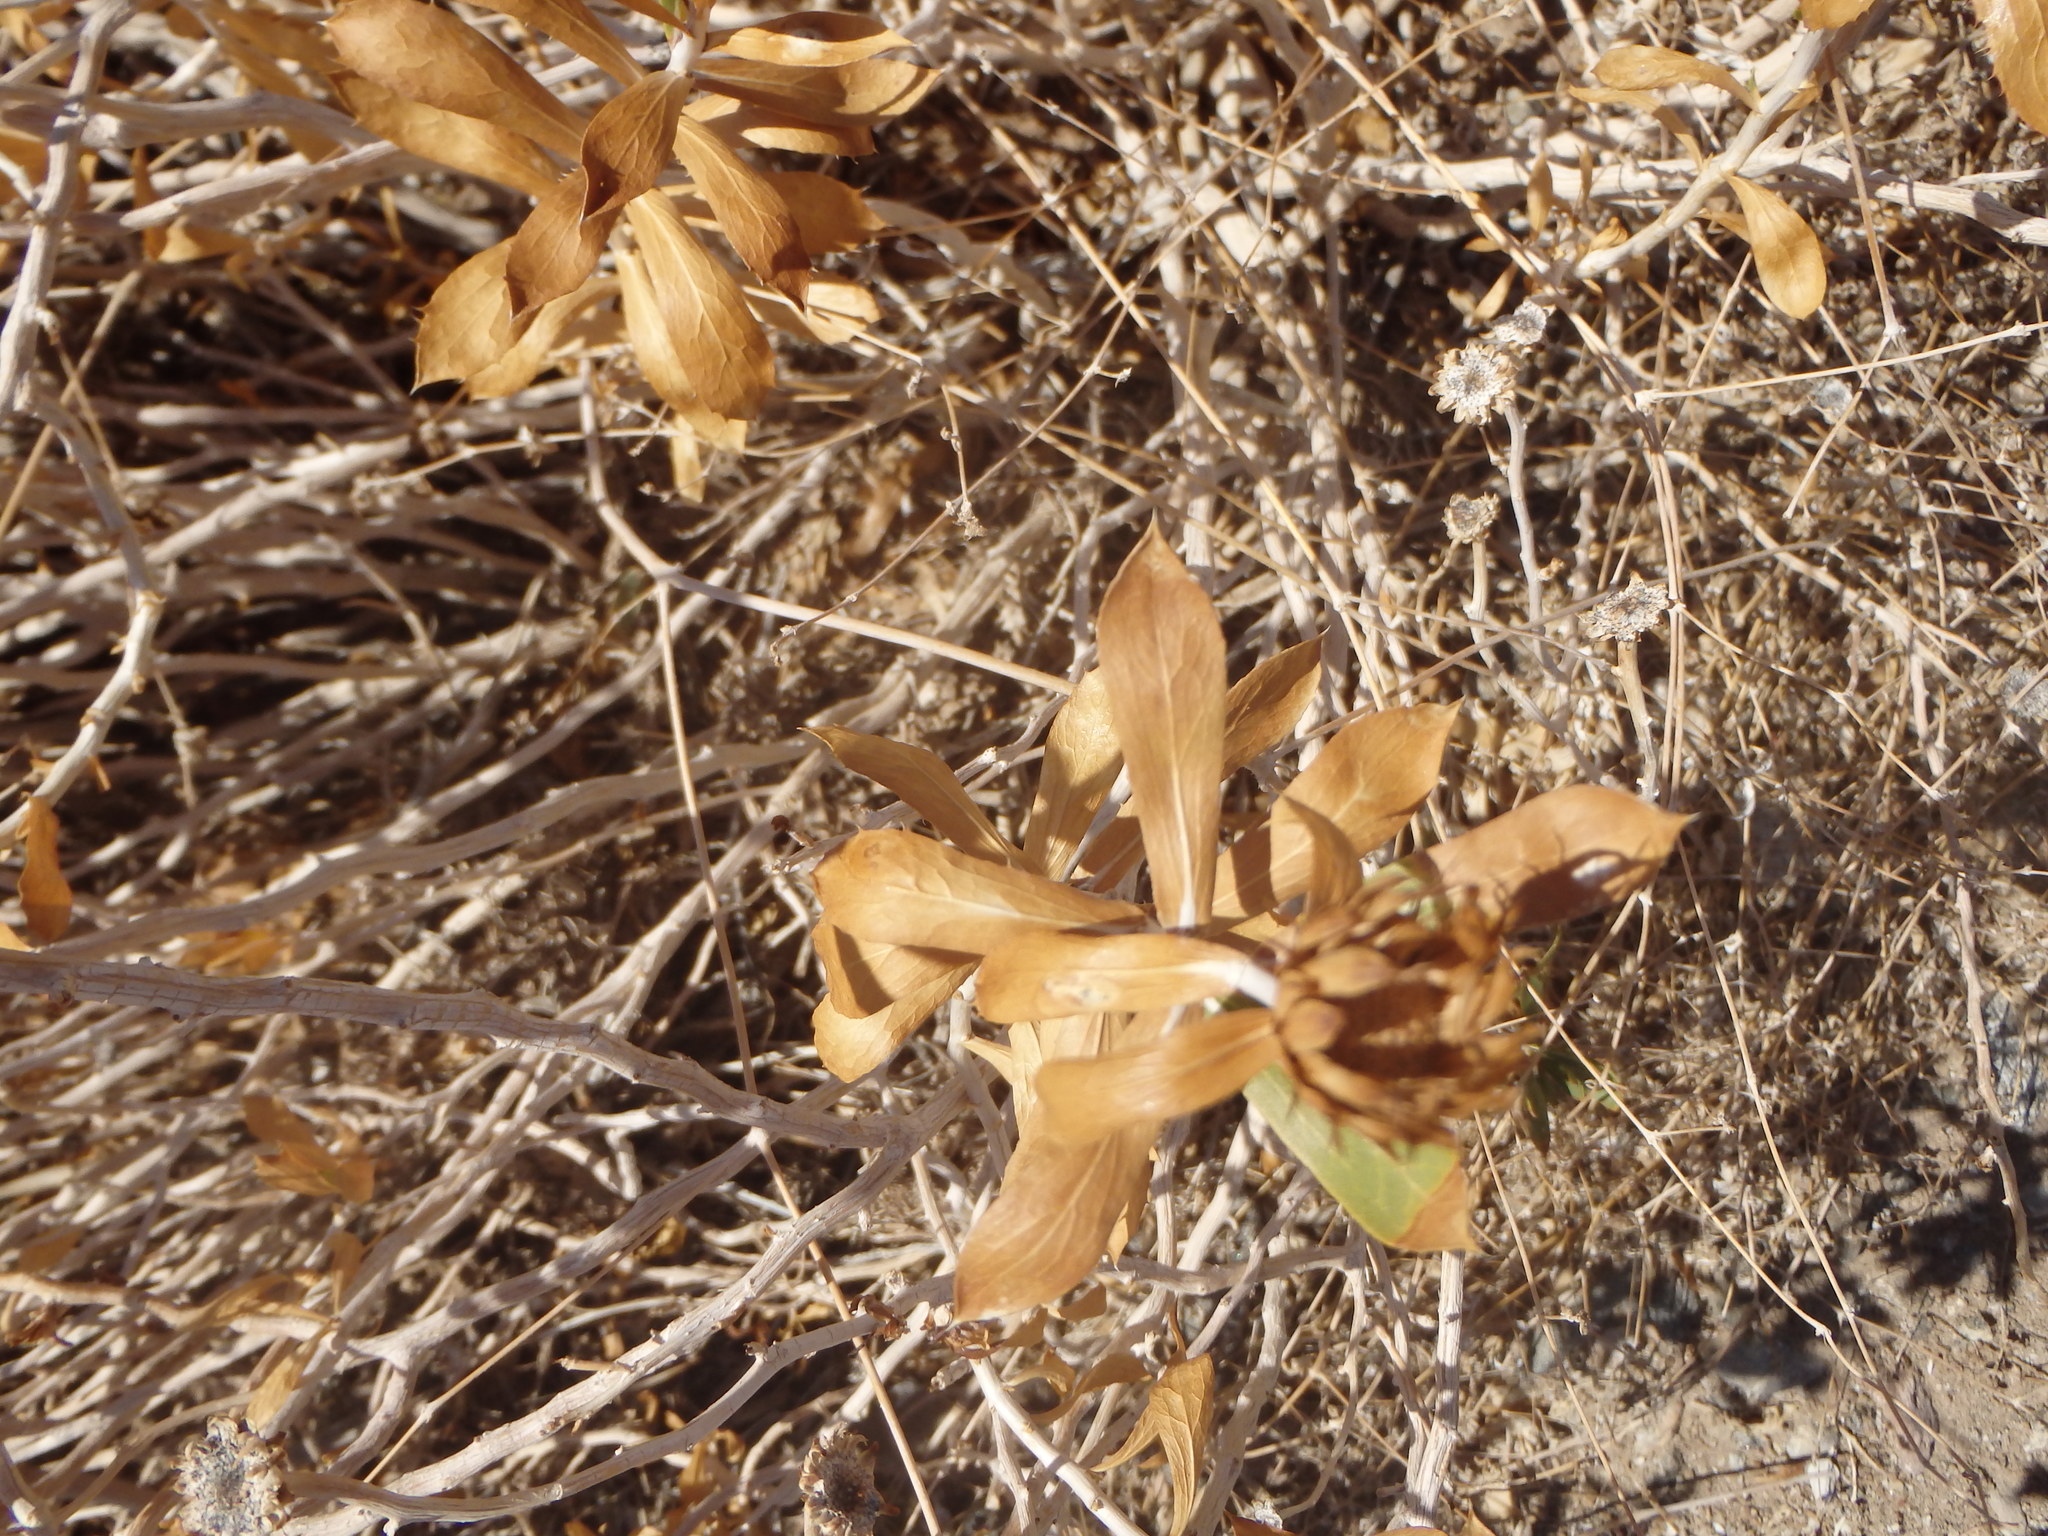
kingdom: Plantae
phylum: Tracheophyta
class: Magnoliopsida
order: Asterales
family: Asteraceae
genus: Xylorhiza
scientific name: Xylorhiza orcuttii
